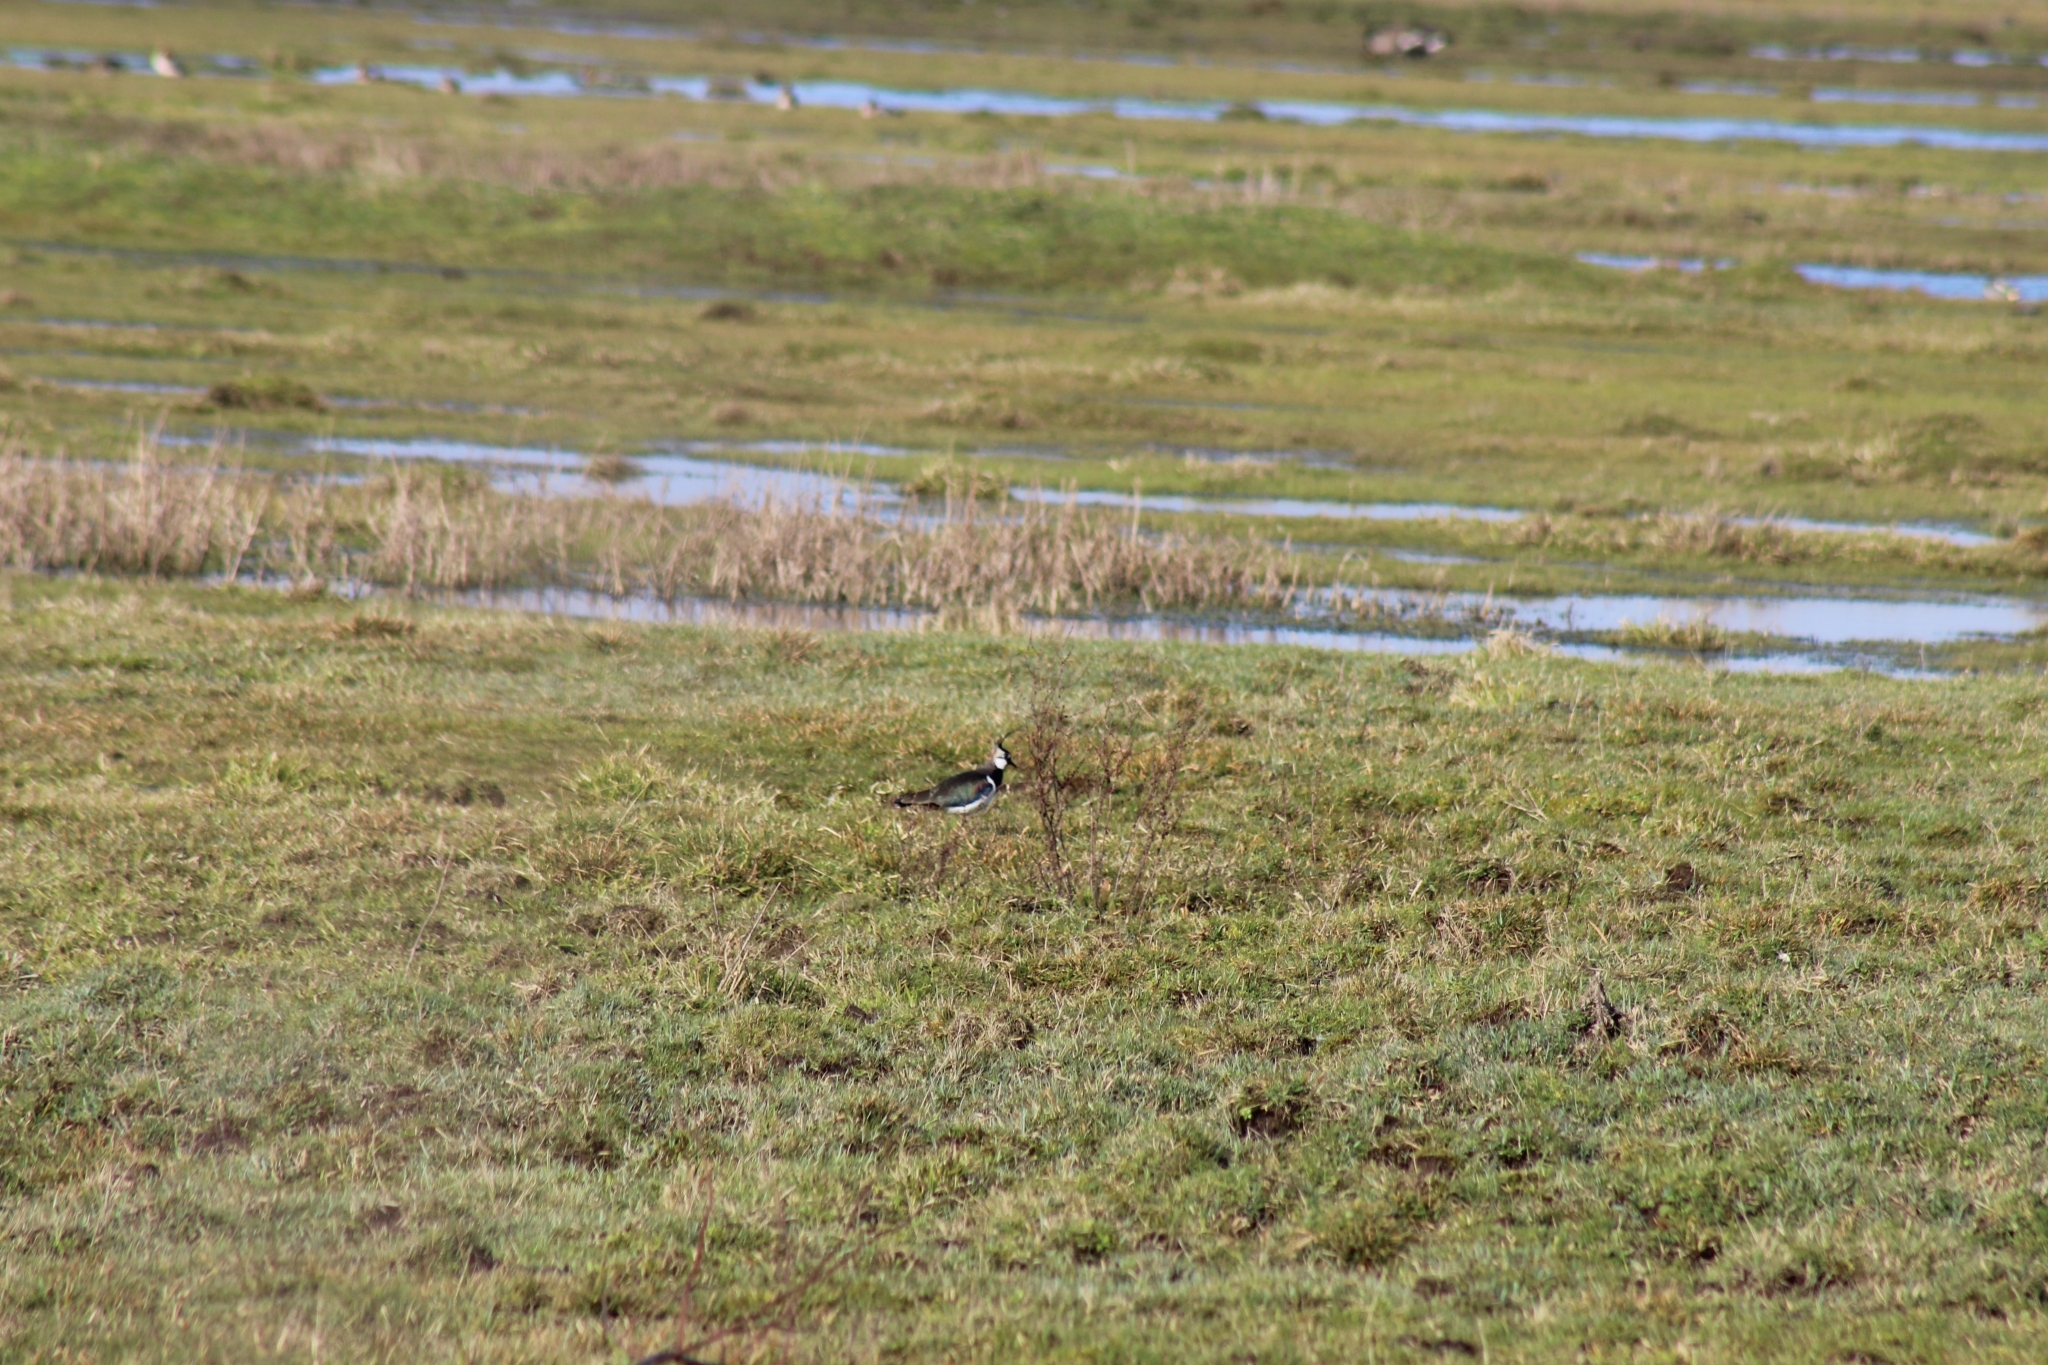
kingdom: Animalia
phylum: Chordata
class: Aves
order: Charadriiformes
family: Charadriidae
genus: Vanellus
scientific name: Vanellus vanellus
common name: Northern lapwing
